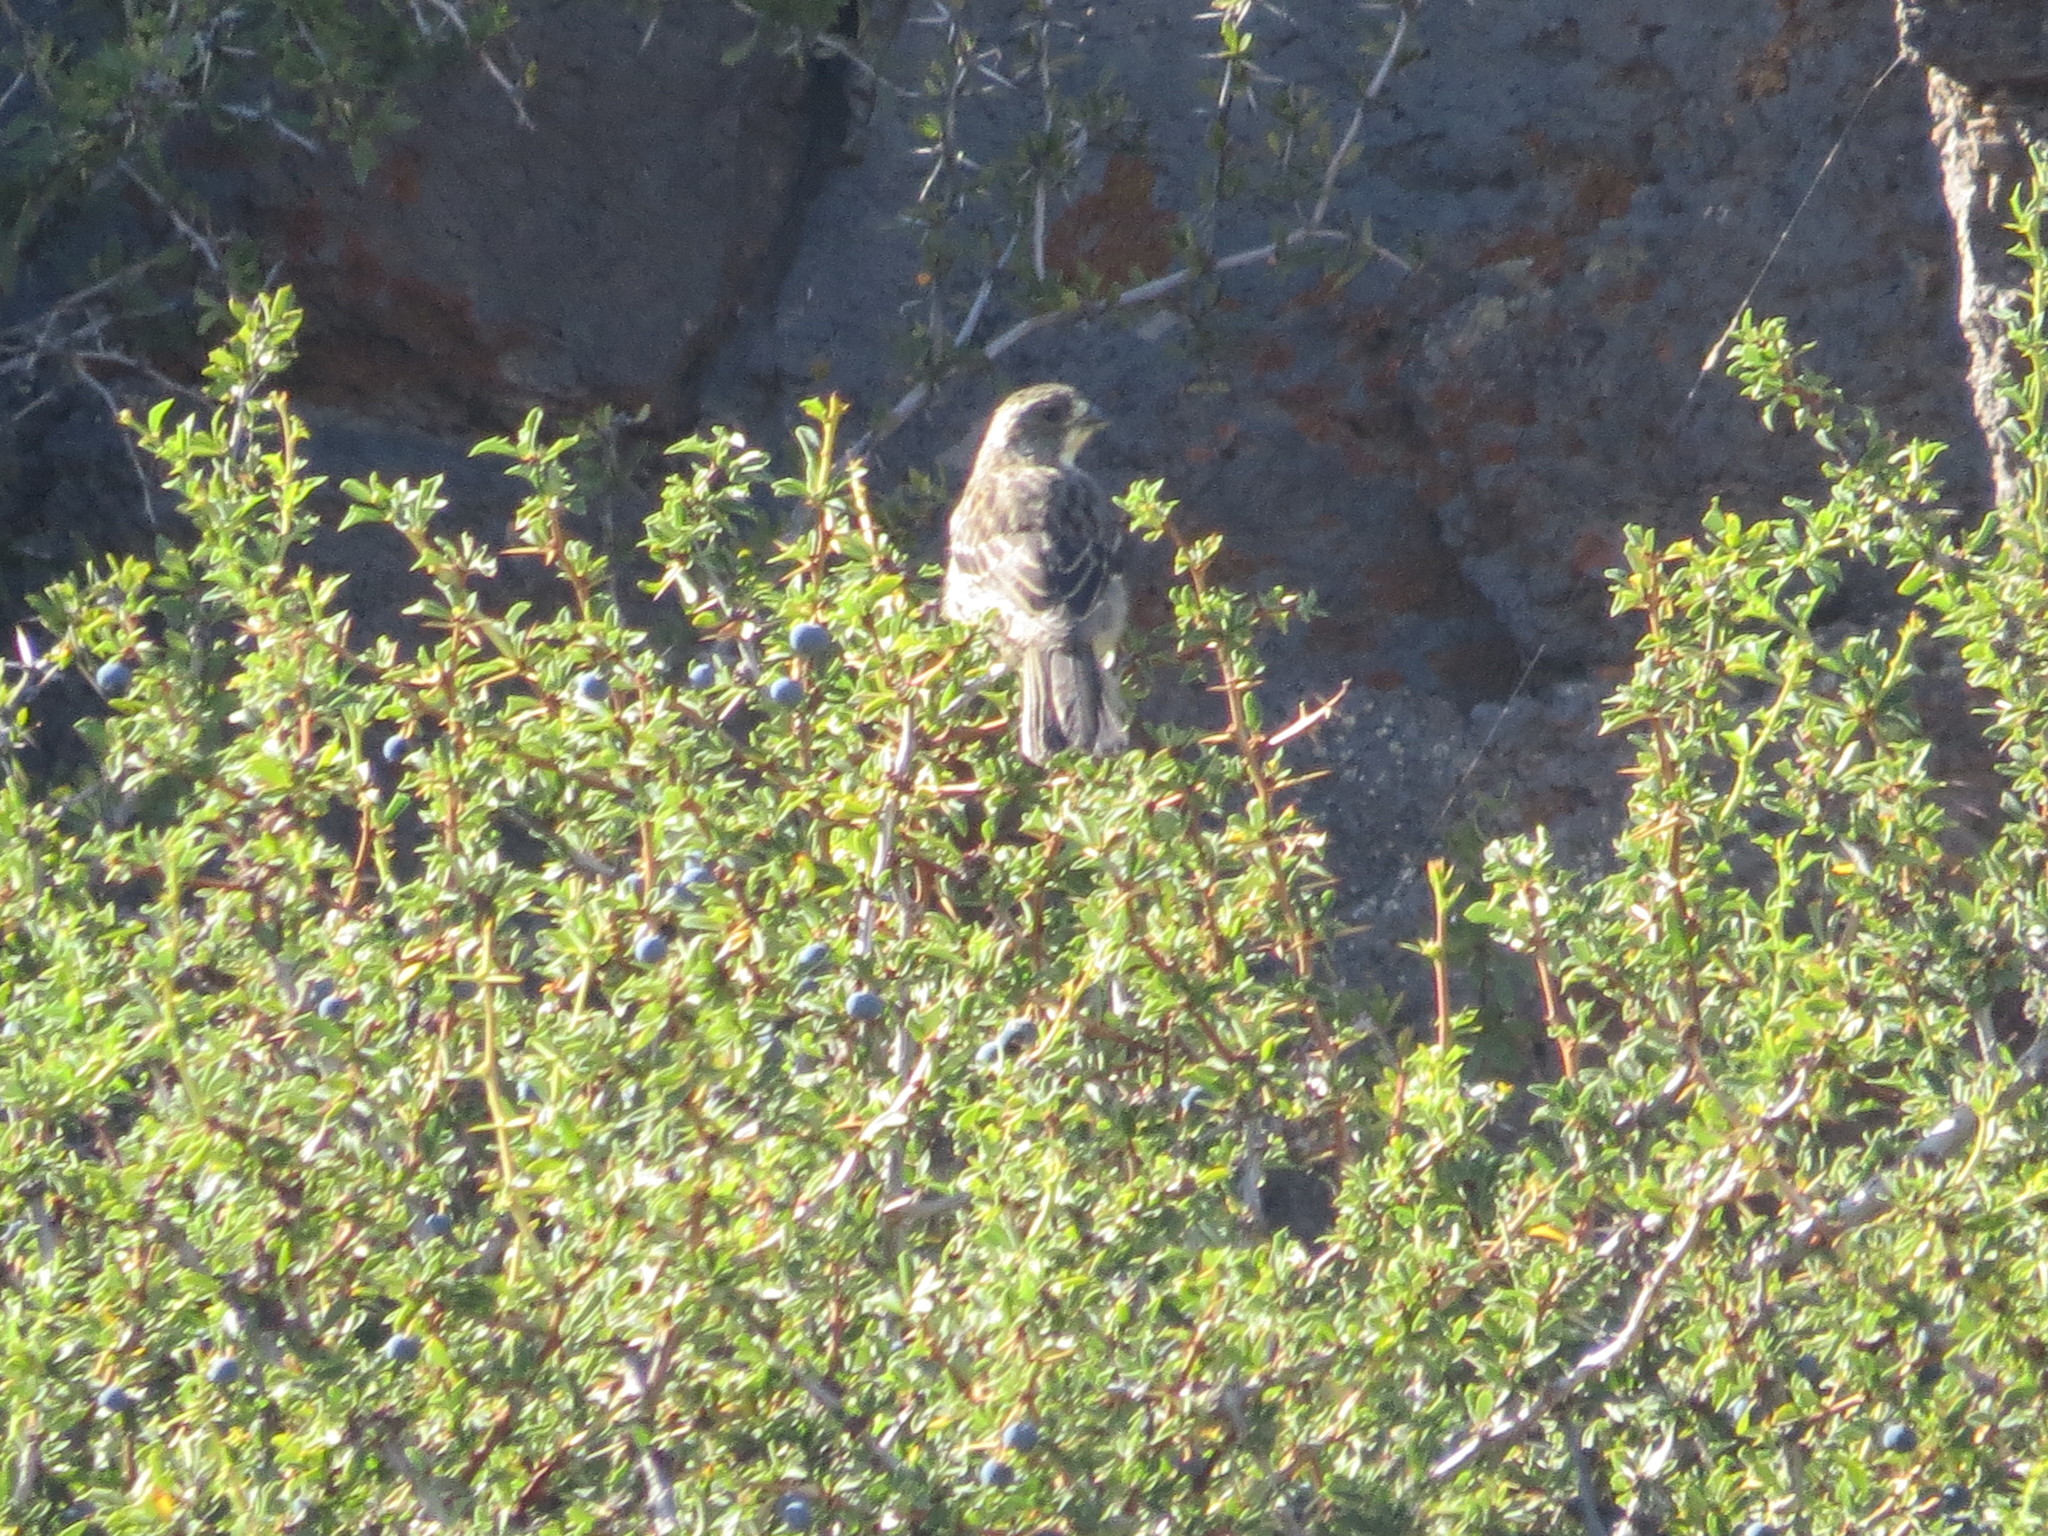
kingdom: Animalia
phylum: Chordata
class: Aves
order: Passeriformes
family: Cotingidae
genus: Phytotoma
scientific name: Phytotoma rara
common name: Rufous-tailed plantcutter
